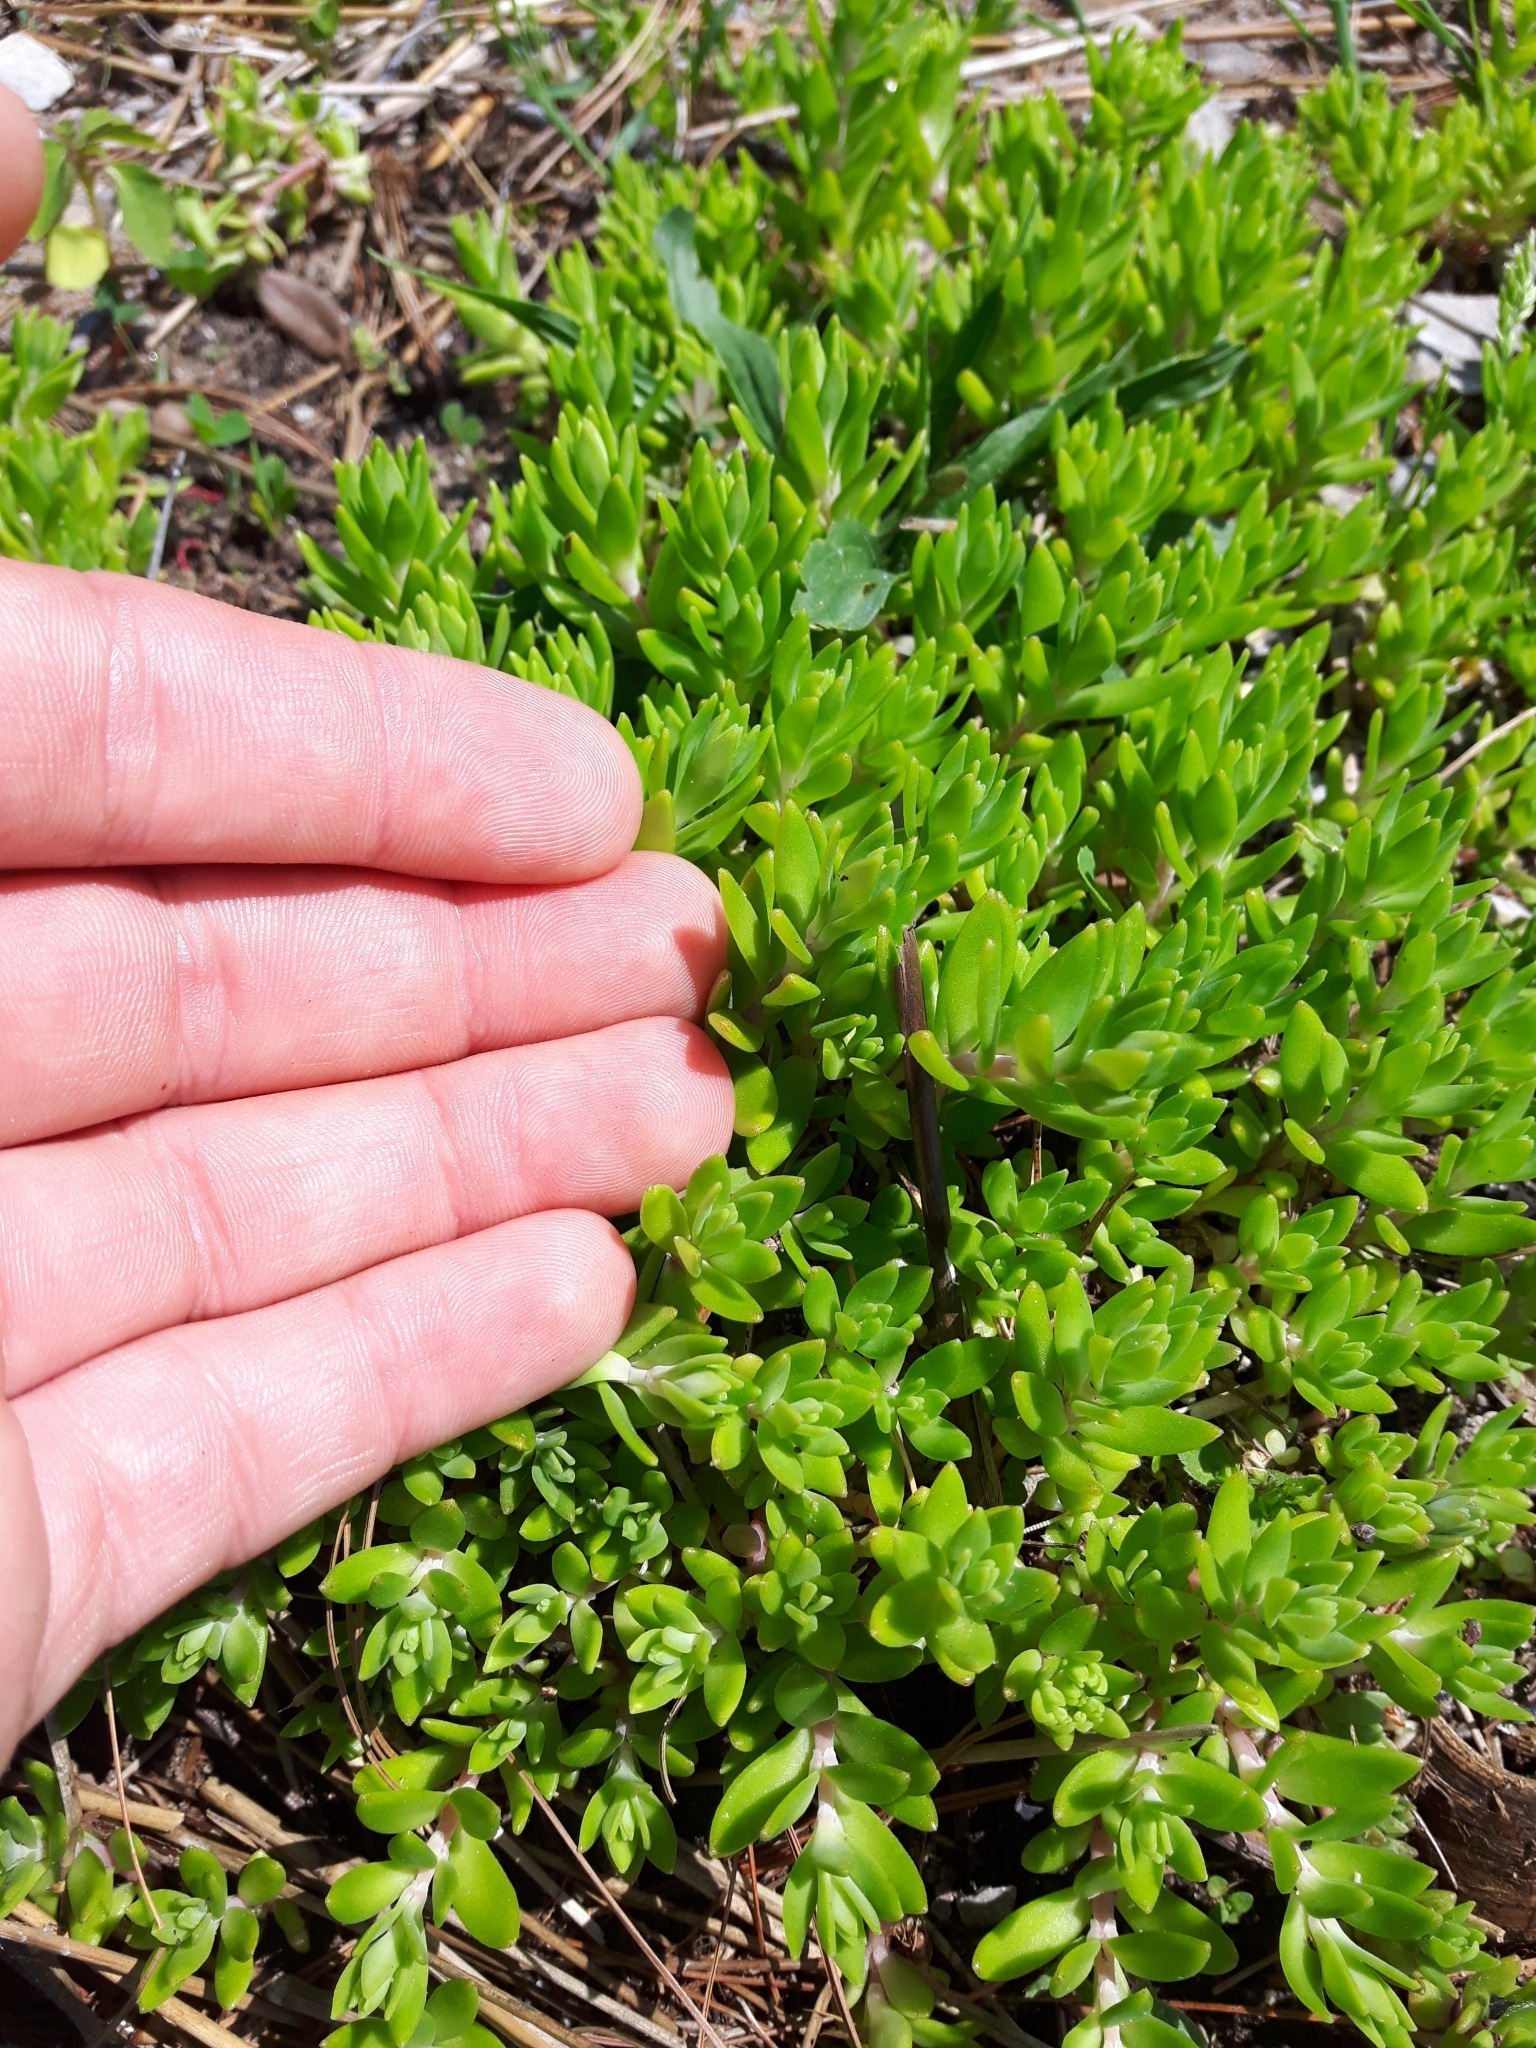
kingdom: Plantae
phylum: Tracheophyta
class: Magnoliopsida
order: Saxifragales
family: Crassulaceae
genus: Sedum
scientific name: Sedum sarmentosum
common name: Stringy stonecrop
